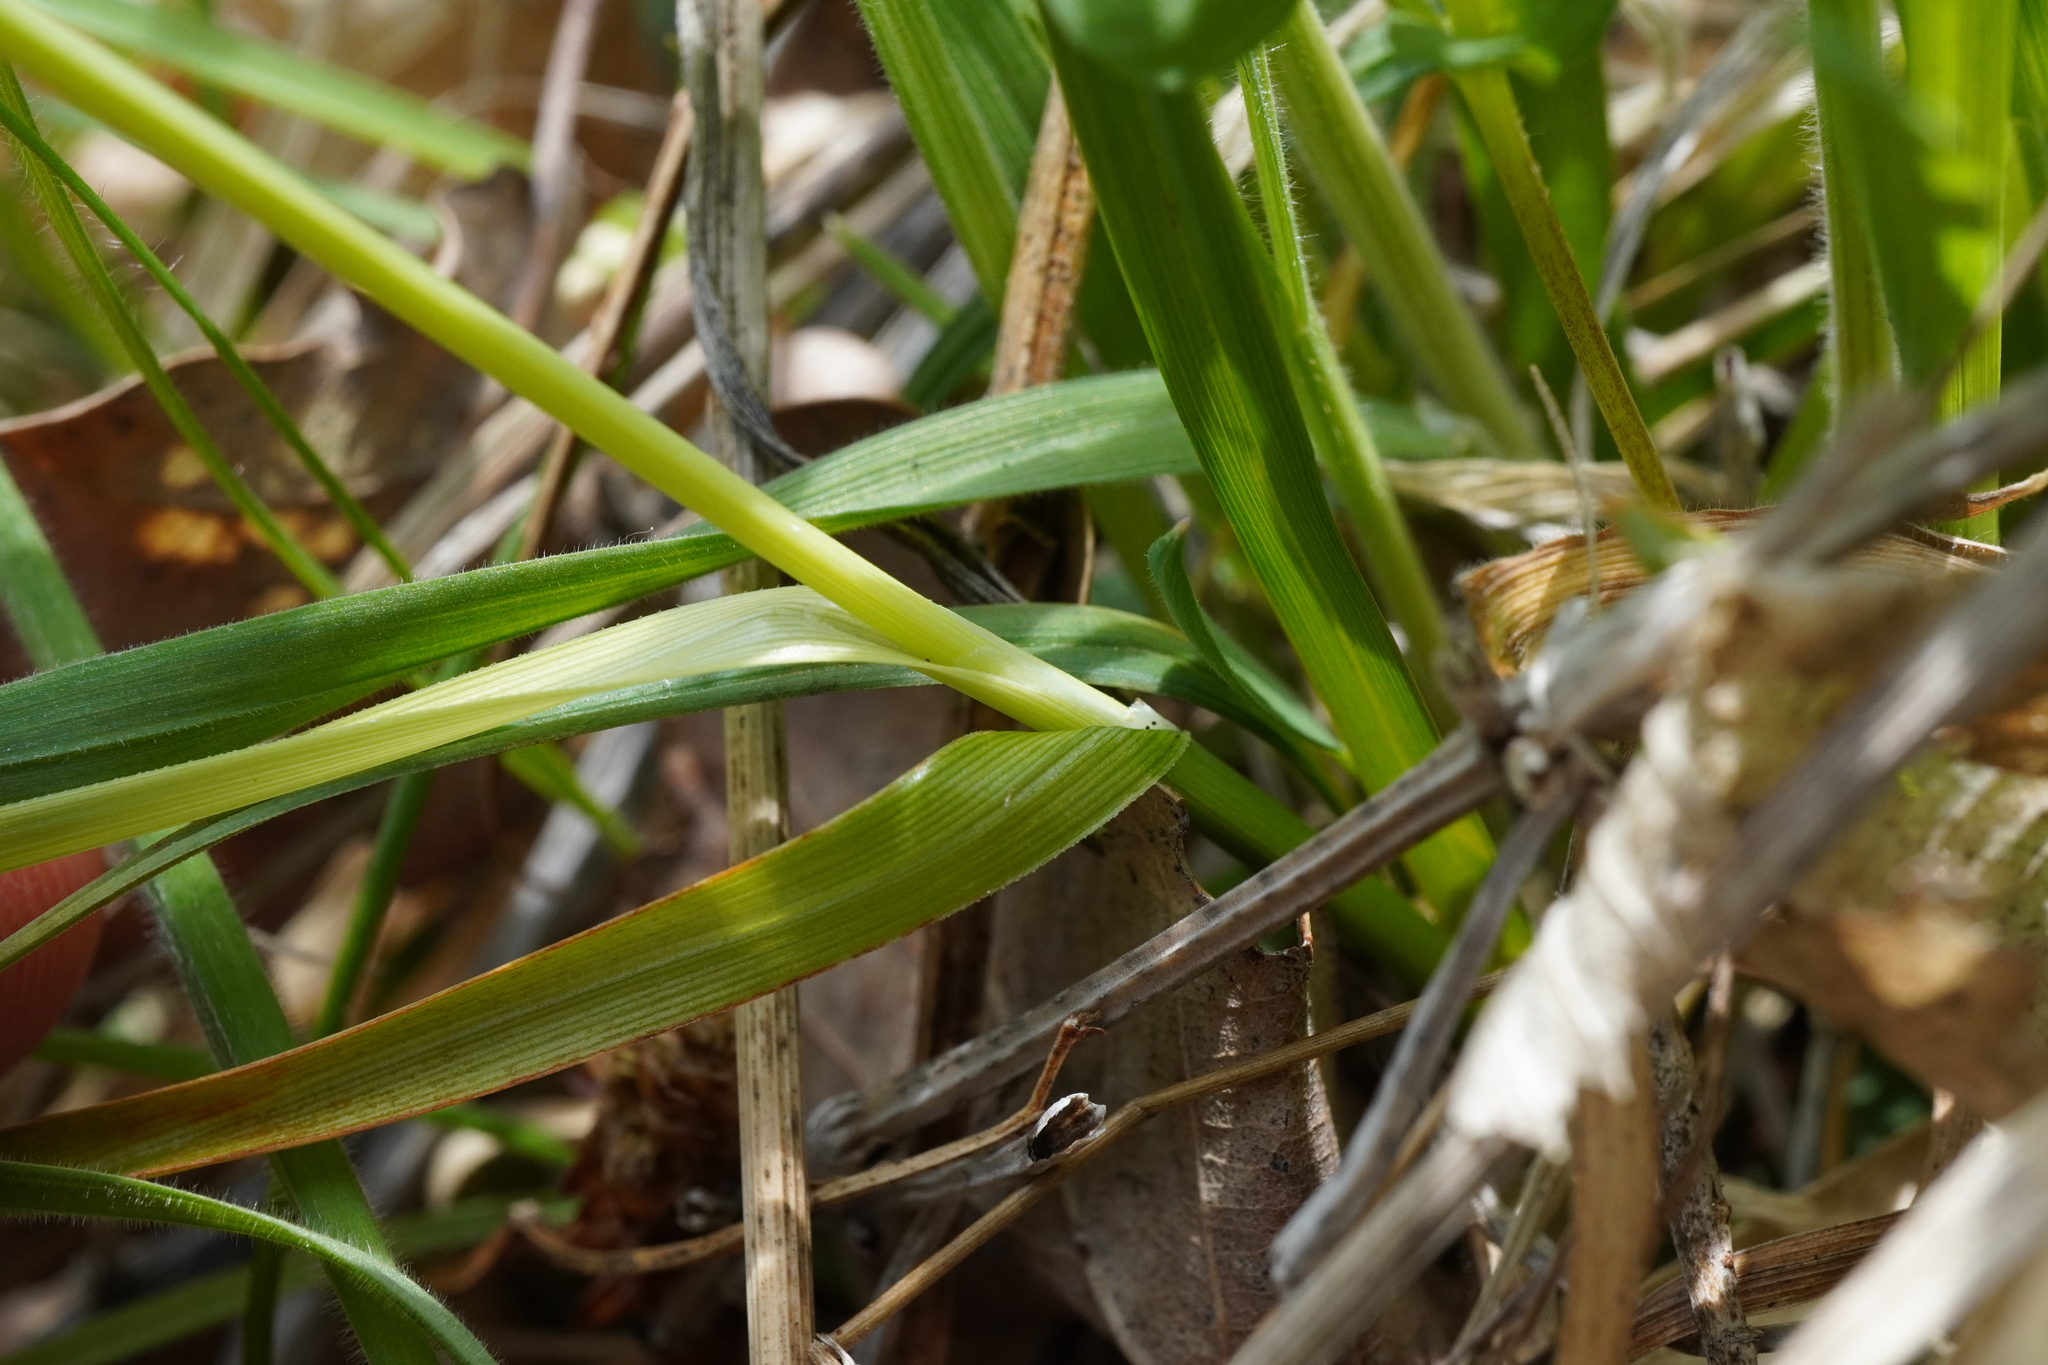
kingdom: Plantae
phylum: Tracheophyta
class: Liliopsida
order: Poales
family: Cyperaceae
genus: Carex
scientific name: Carex flacca
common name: Glaucous sedge
